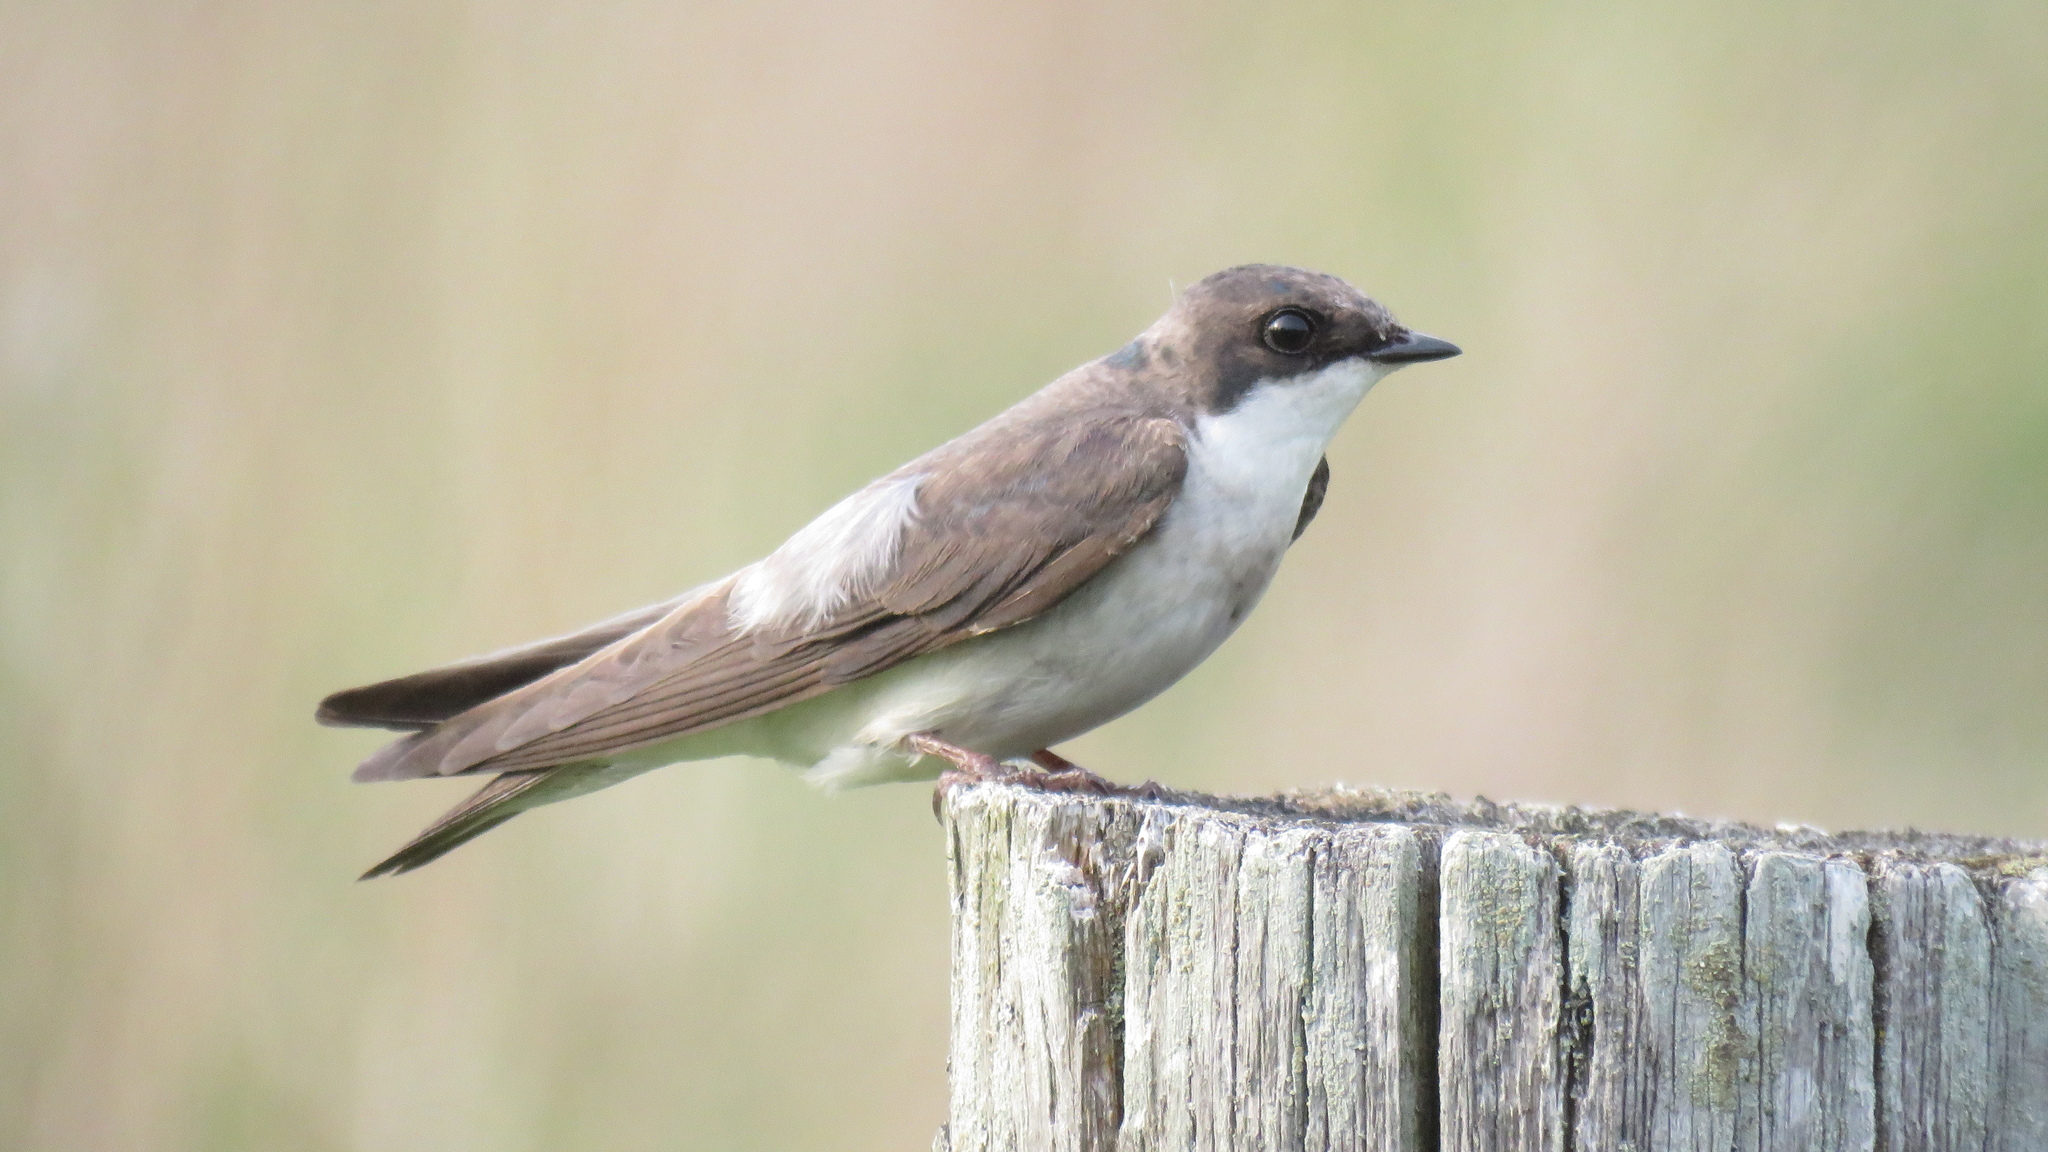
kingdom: Animalia
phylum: Chordata
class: Aves
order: Passeriformes
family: Hirundinidae
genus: Tachycineta
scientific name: Tachycineta bicolor
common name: Tree swallow
